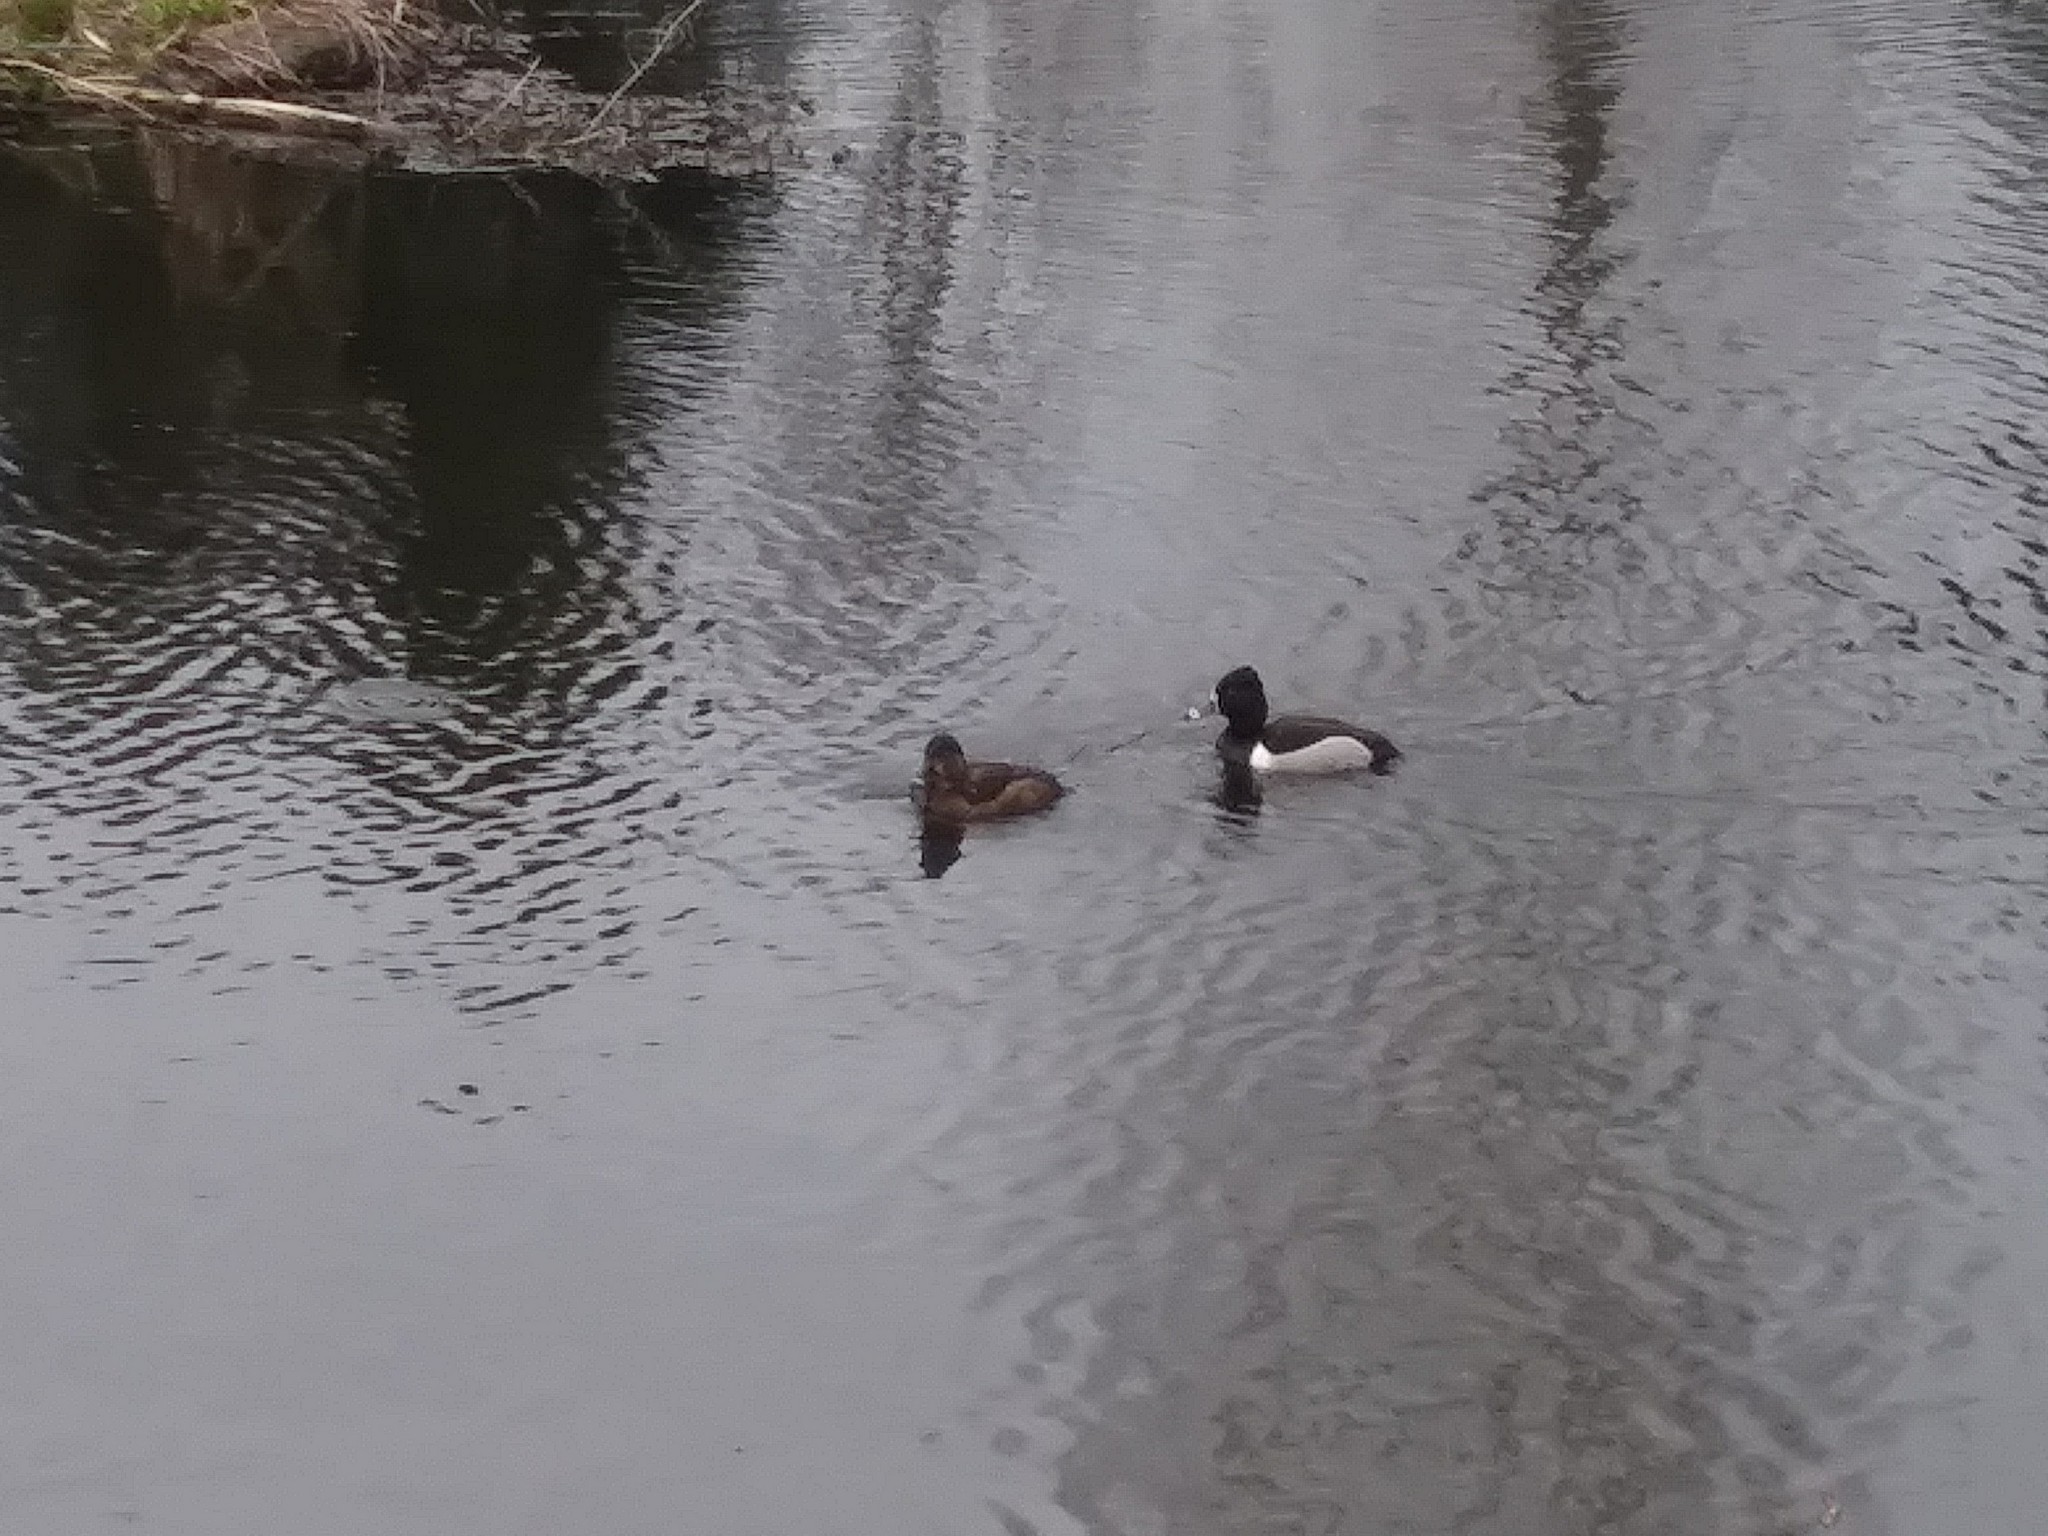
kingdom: Animalia
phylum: Chordata
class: Aves
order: Anseriformes
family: Anatidae
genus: Aythya
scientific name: Aythya collaris
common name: Ring-necked duck
